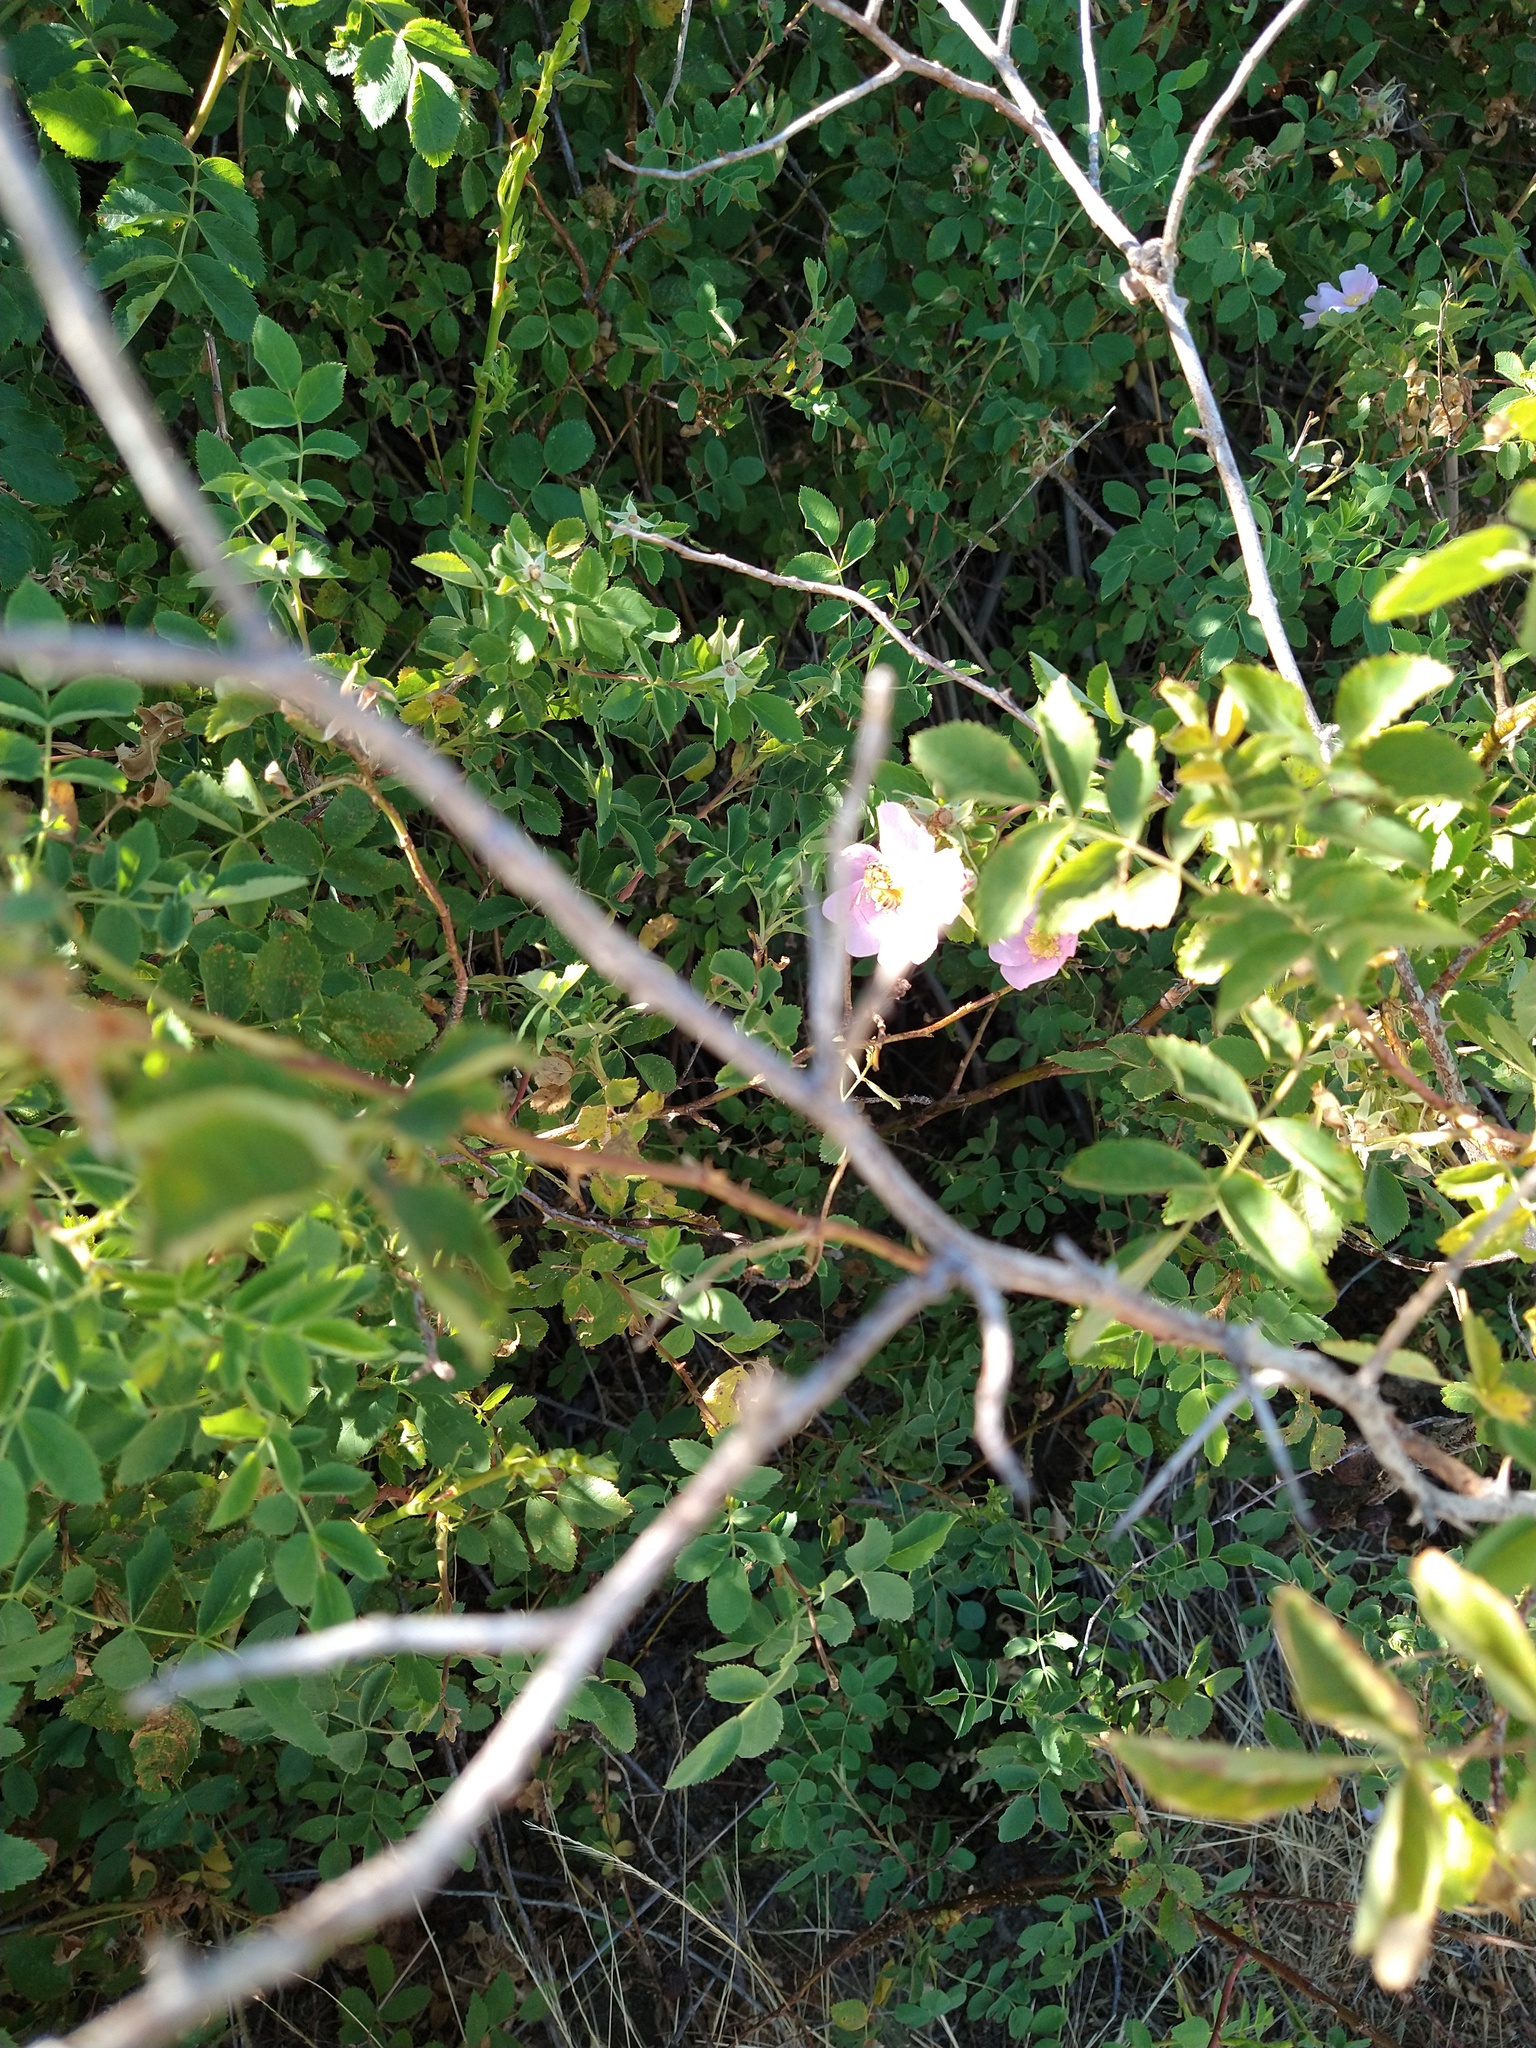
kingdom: Plantae
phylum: Tracheophyta
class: Magnoliopsida
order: Rosales
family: Rosaceae
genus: Rosa
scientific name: Rosa californica
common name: California rose
